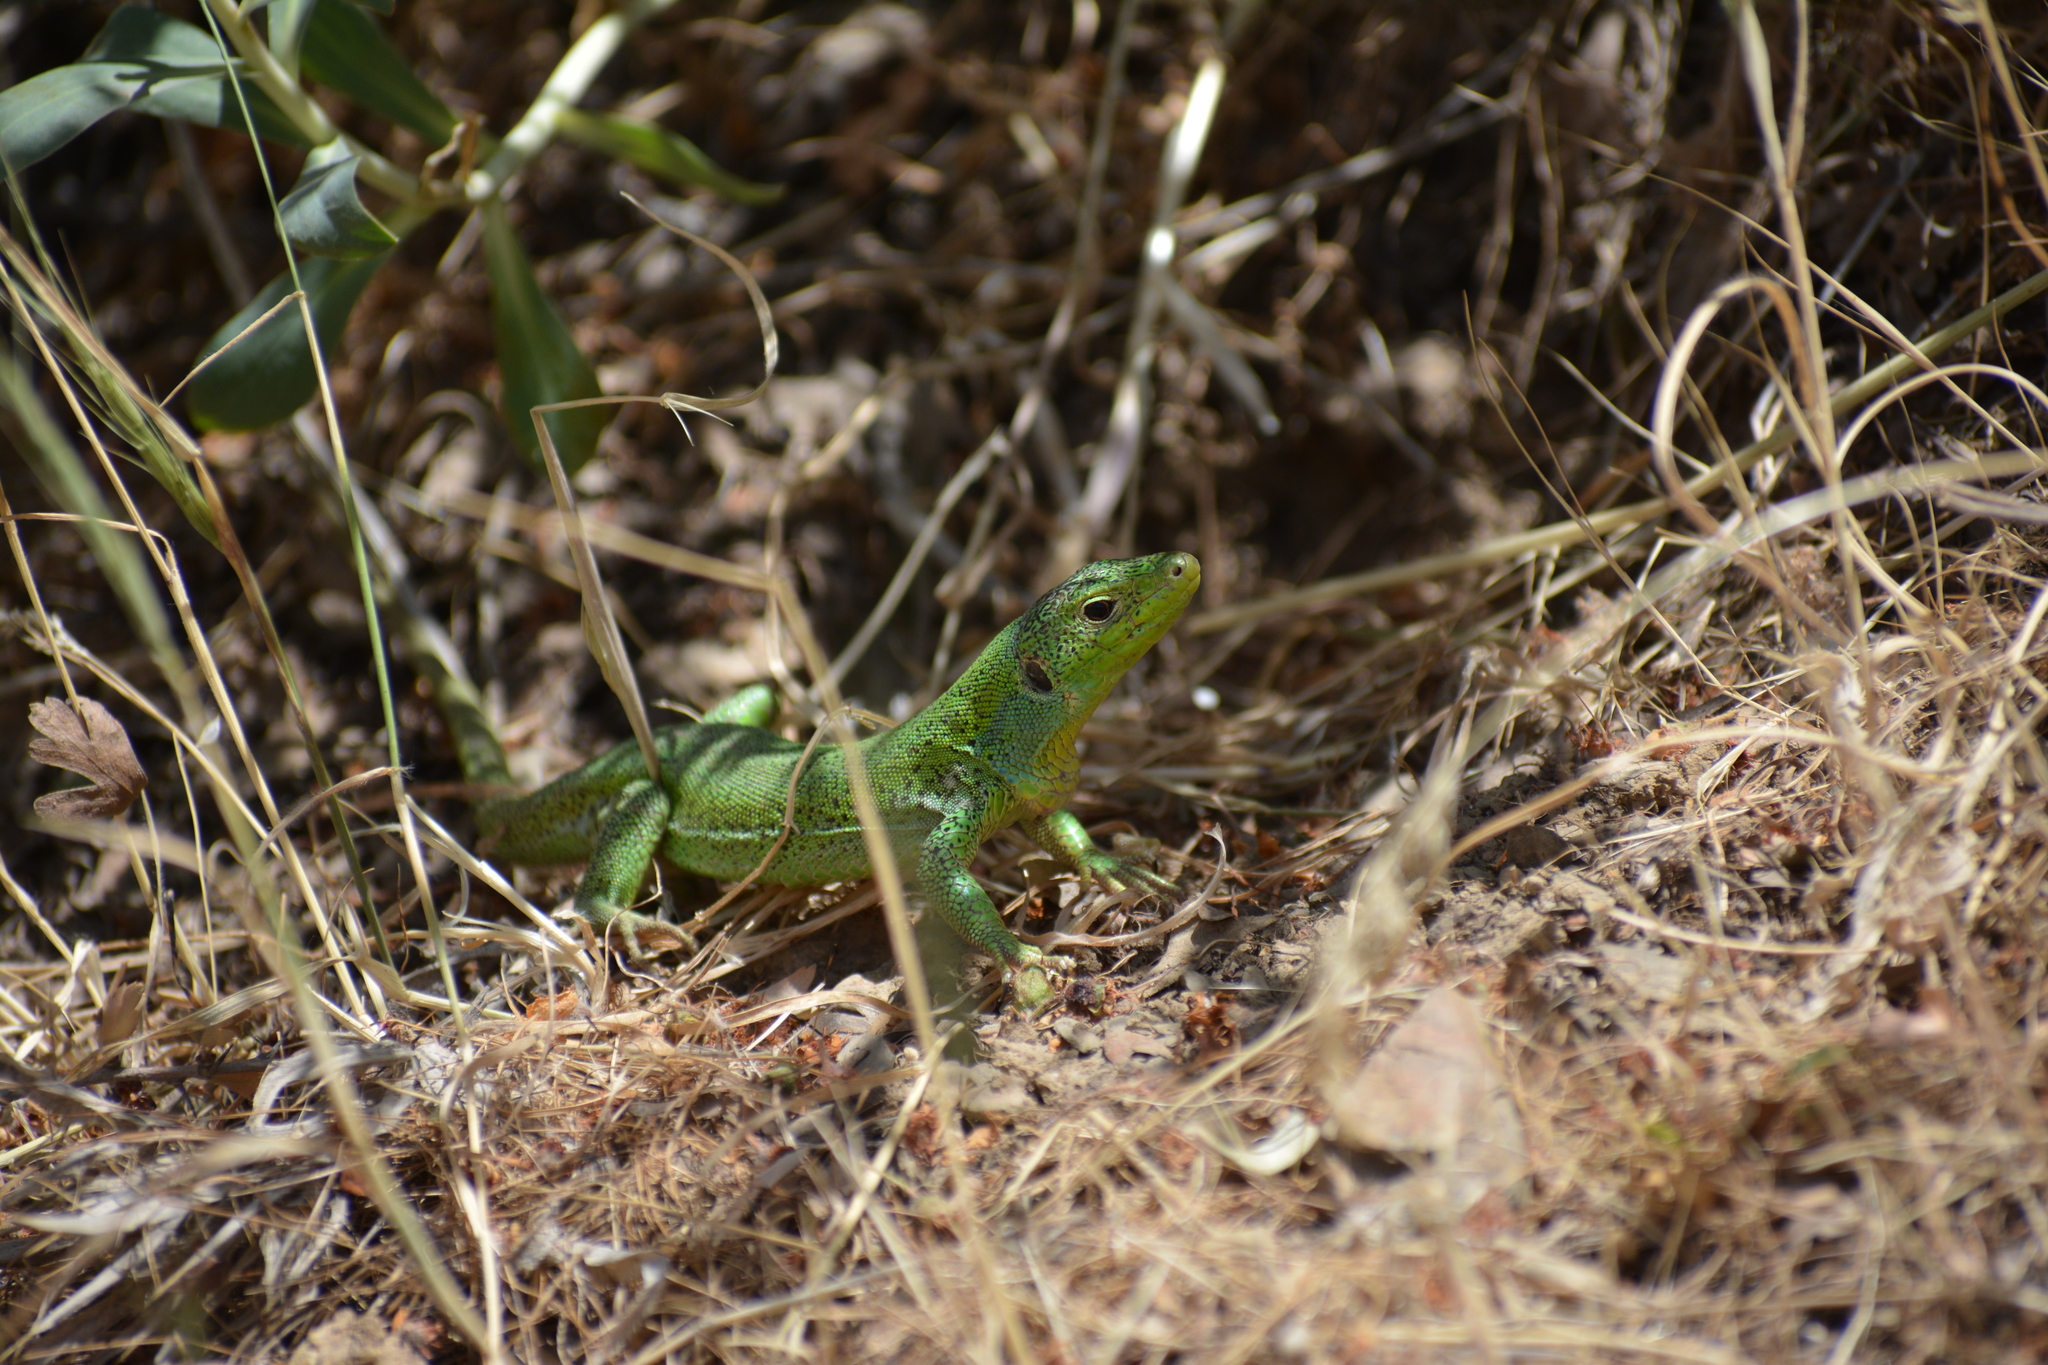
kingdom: Animalia
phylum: Chordata
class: Squamata
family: Lacertidae
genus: Lacerta
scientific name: Lacerta media
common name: Medium lizard
